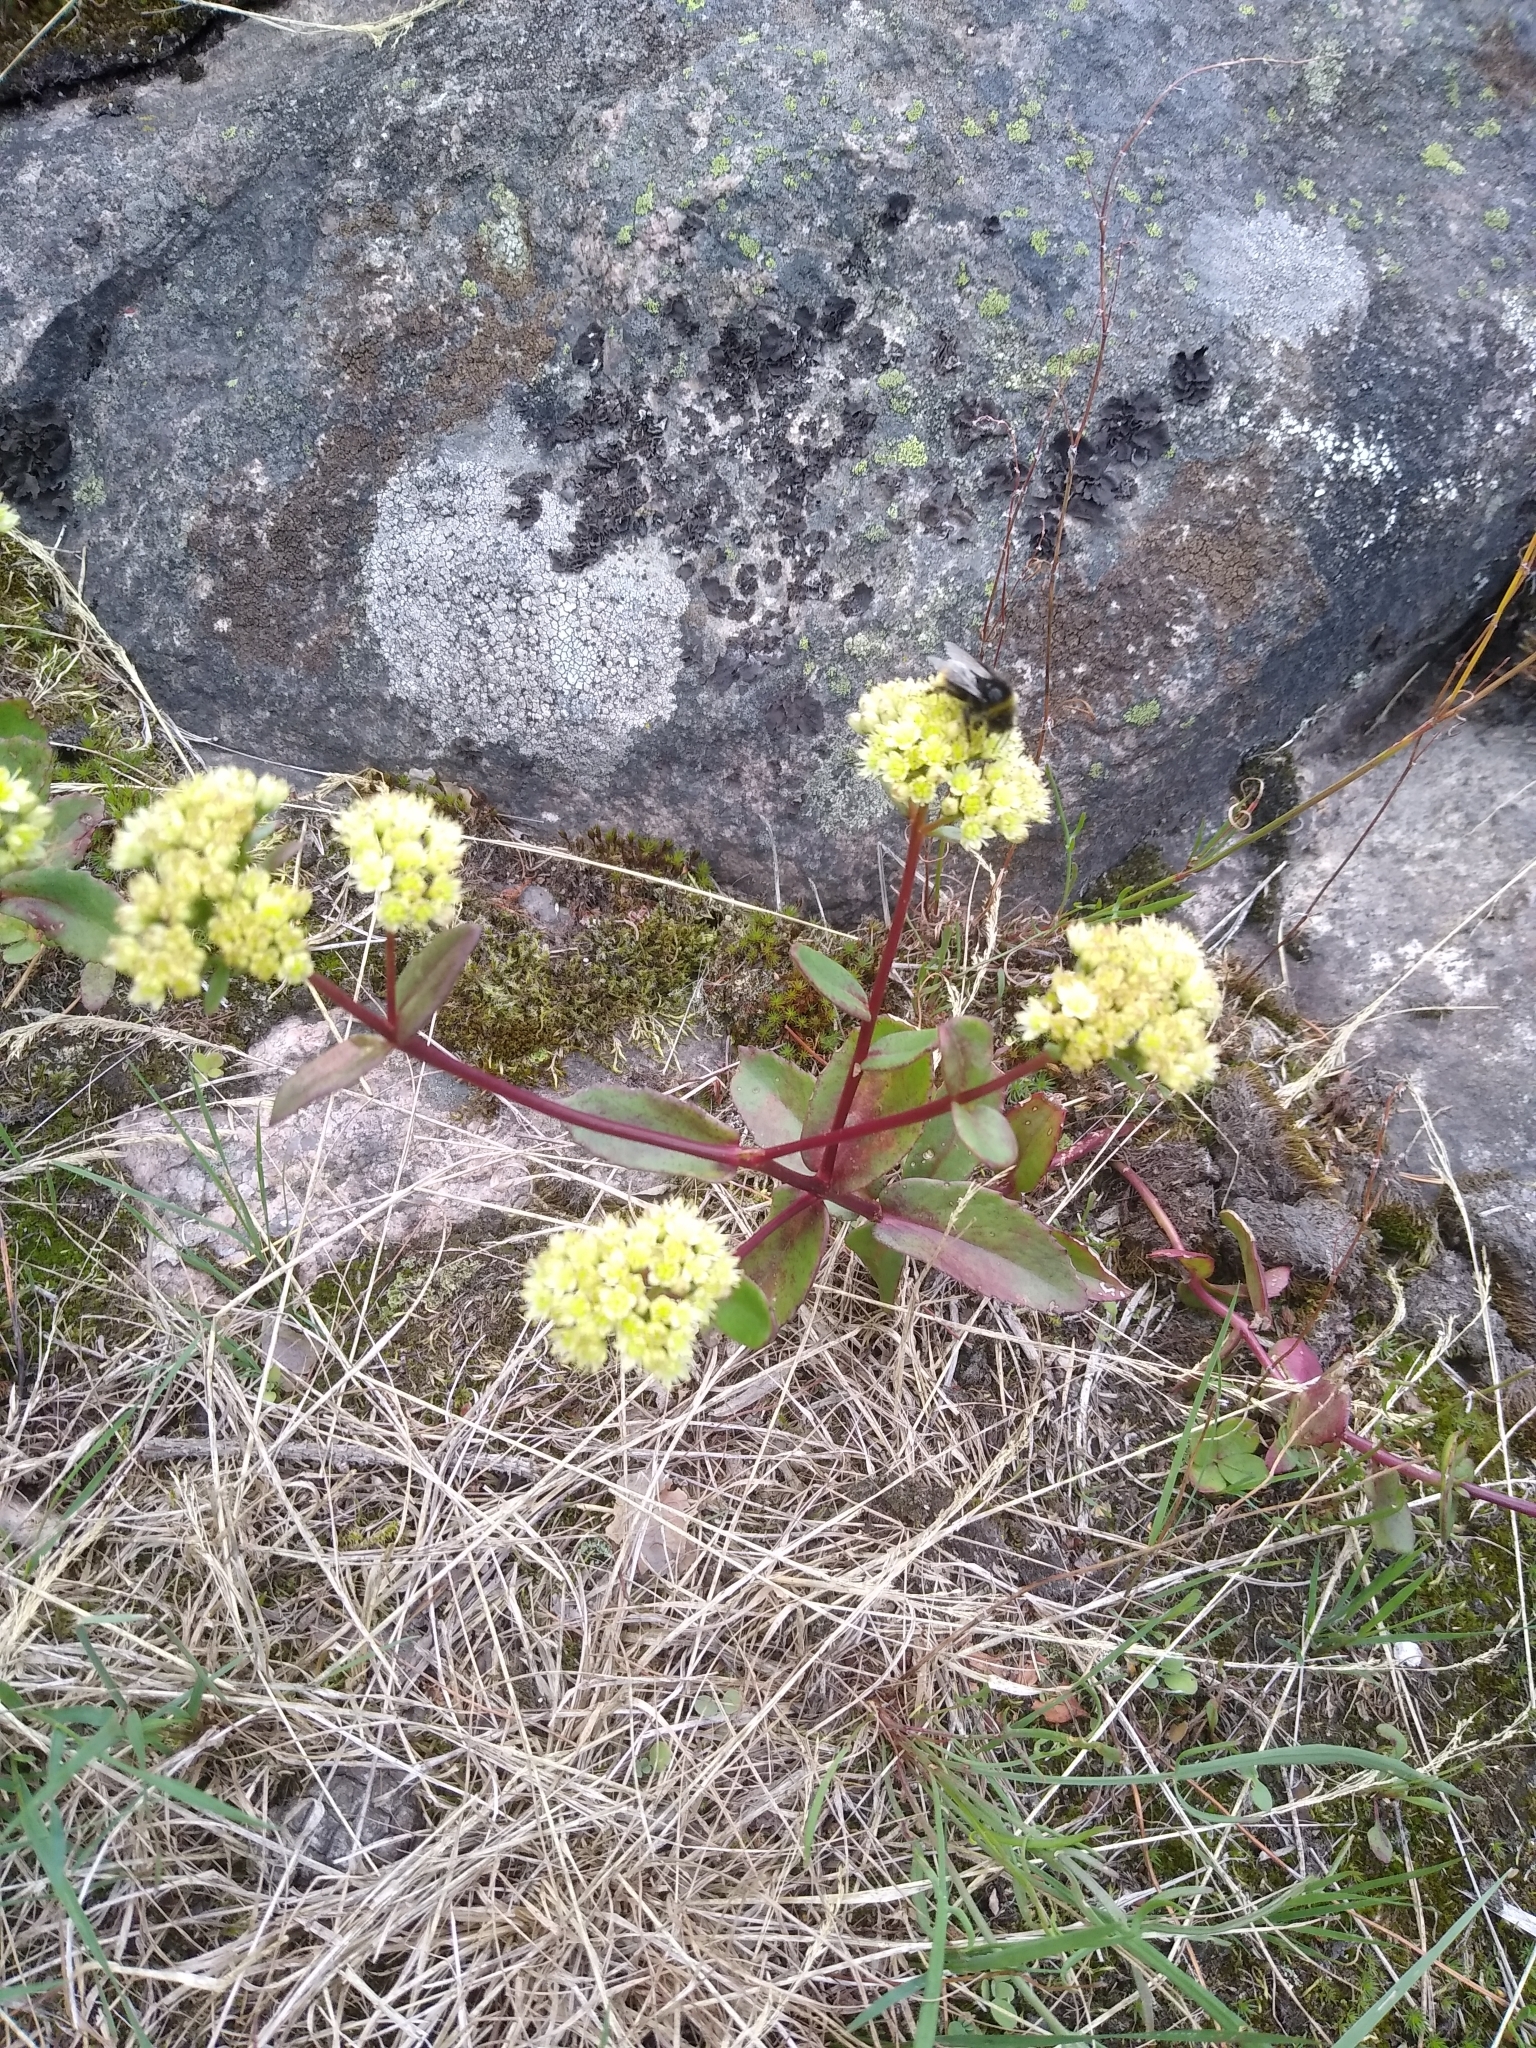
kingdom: Plantae
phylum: Tracheophyta
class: Magnoliopsida
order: Saxifragales
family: Crassulaceae
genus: Hylotelephium
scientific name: Hylotelephium maximum
